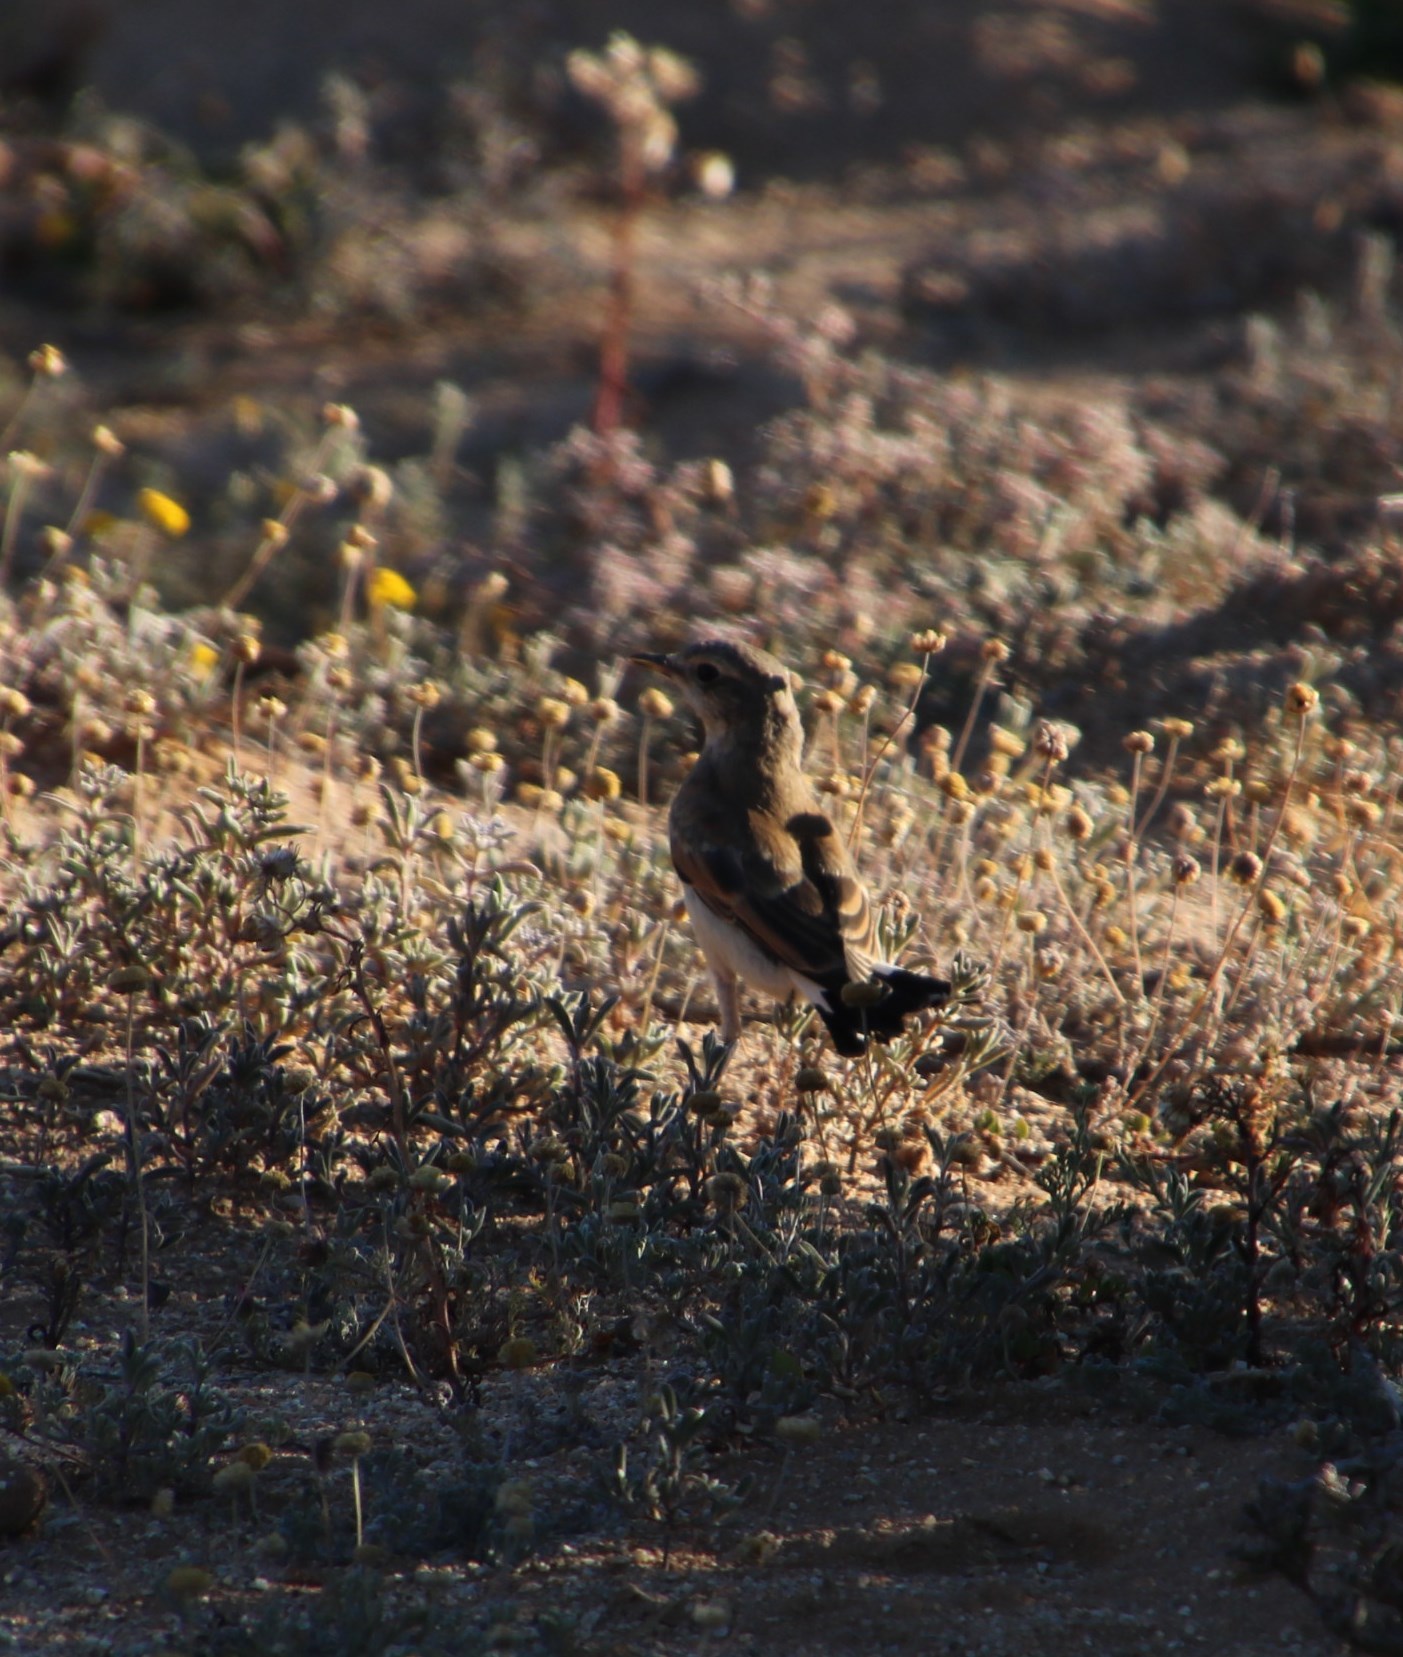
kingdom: Animalia
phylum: Chordata
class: Aves
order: Passeriformes
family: Muscicapidae
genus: Oenanthe
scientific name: Oenanthe pileata
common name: Capped wheatear
